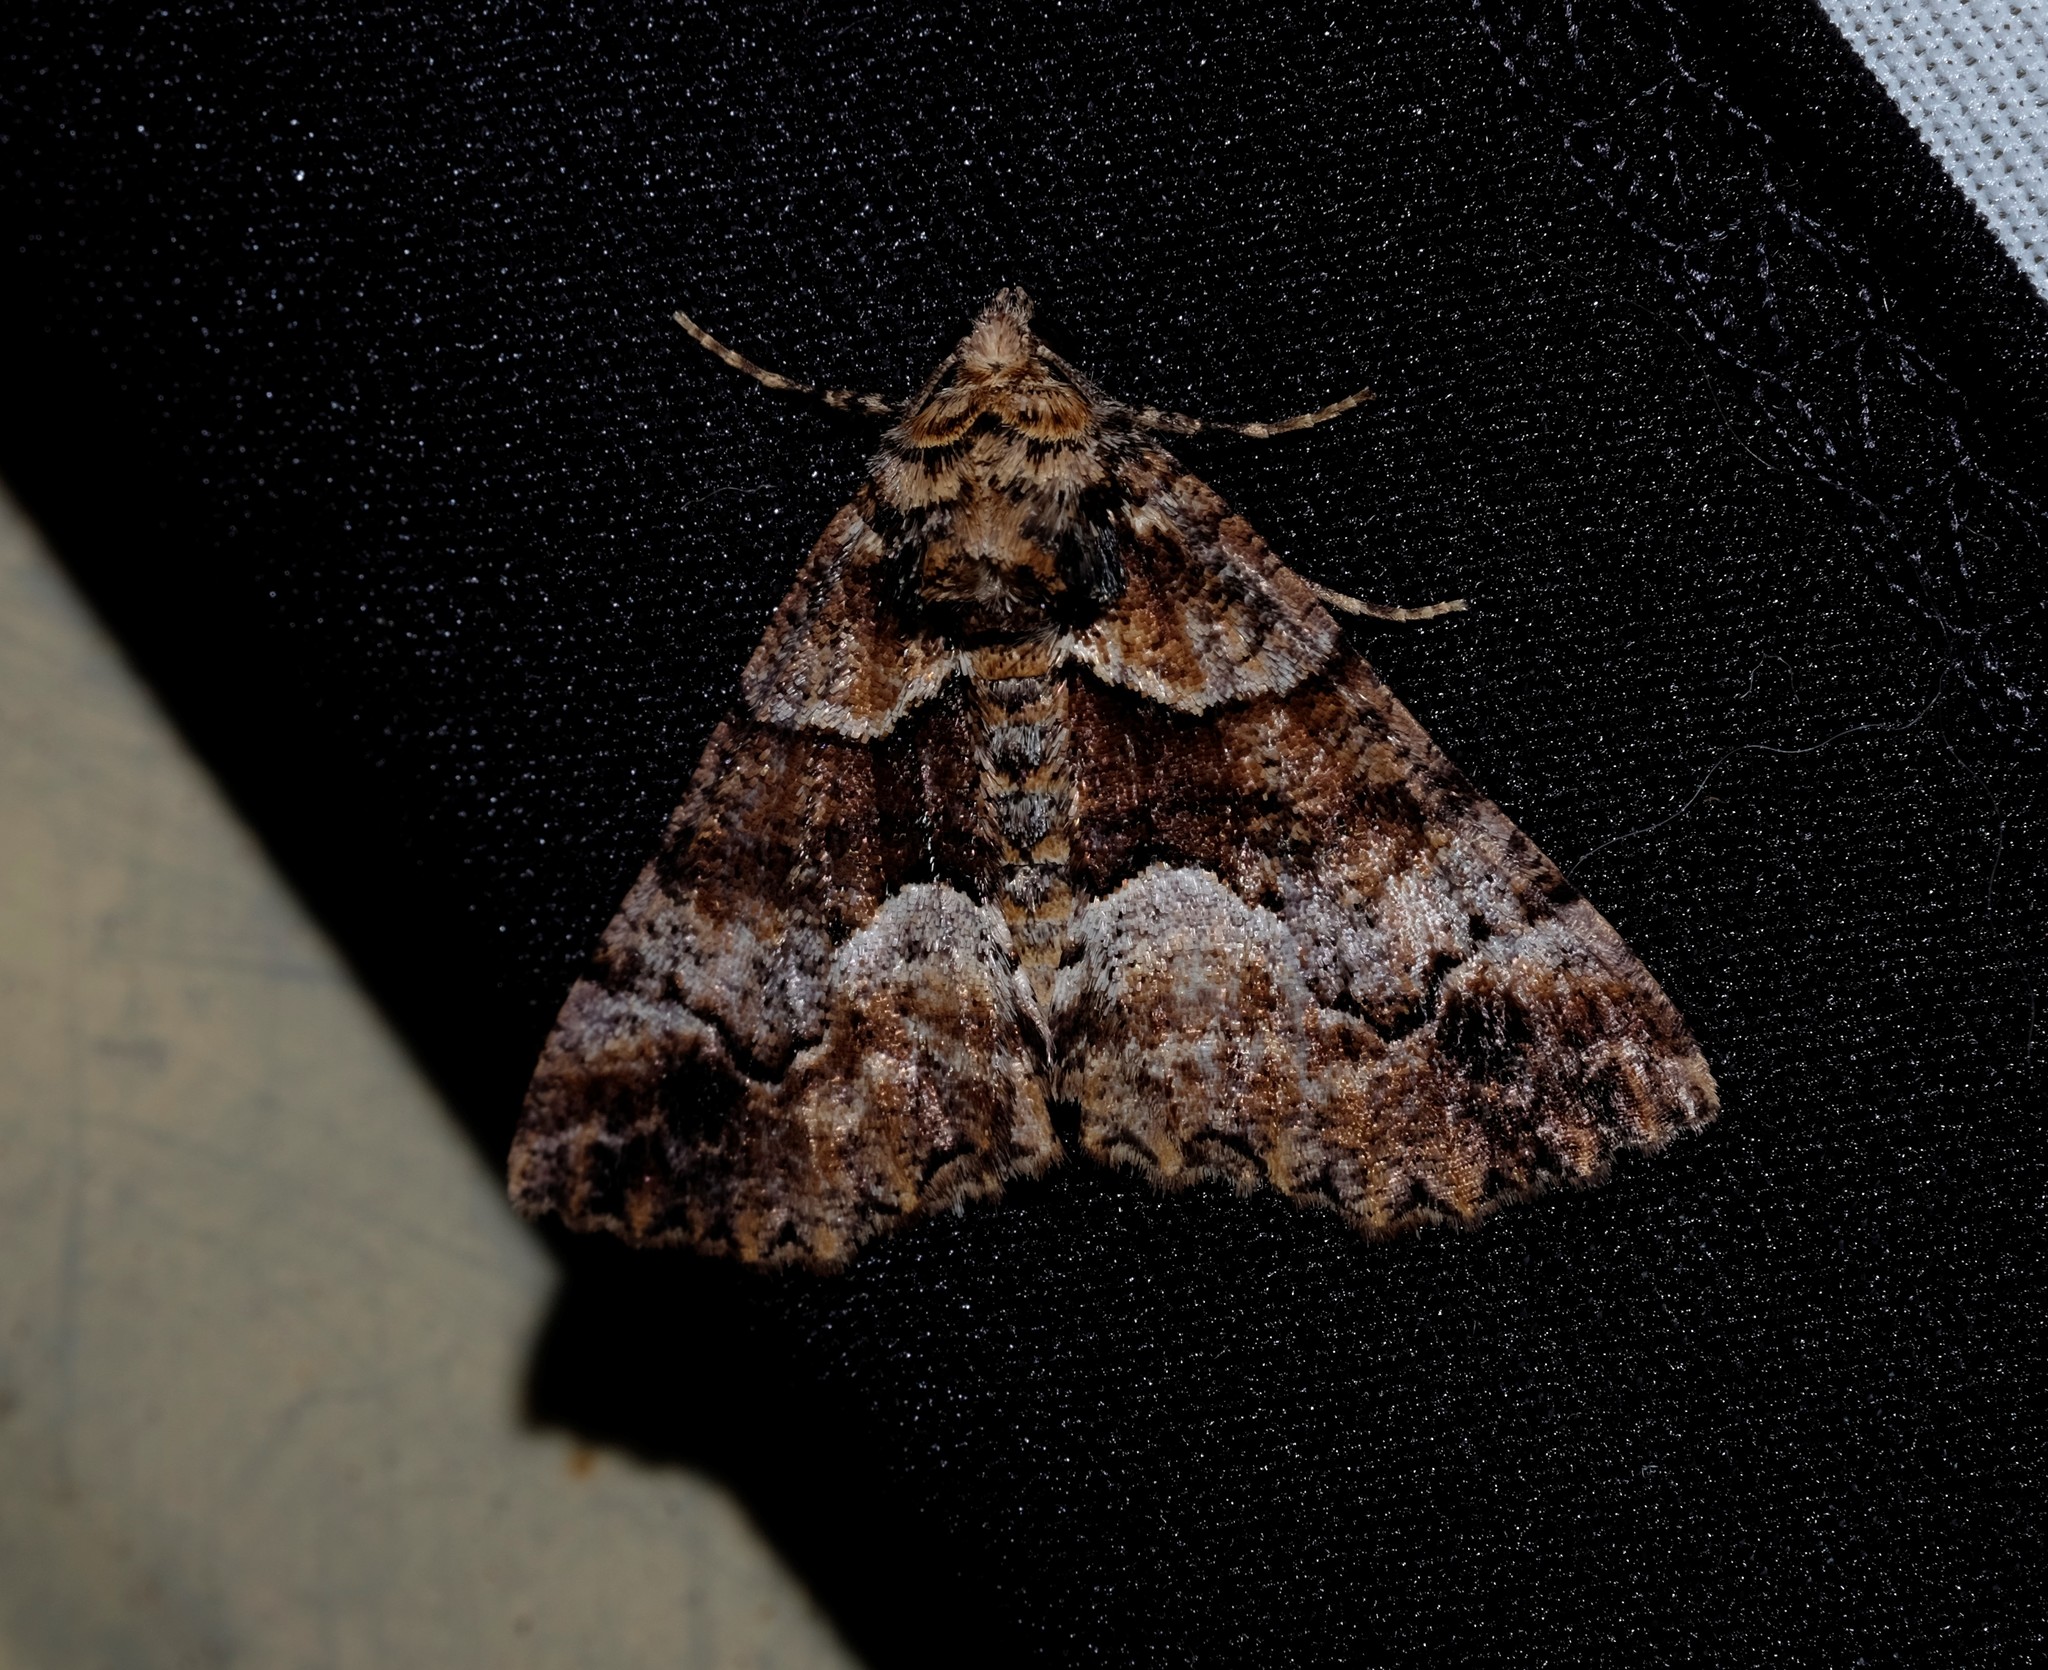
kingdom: Animalia
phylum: Arthropoda
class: Insecta
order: Lepidoptera
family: Geometridae
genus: Gastrina
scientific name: Gastrina cristaria
